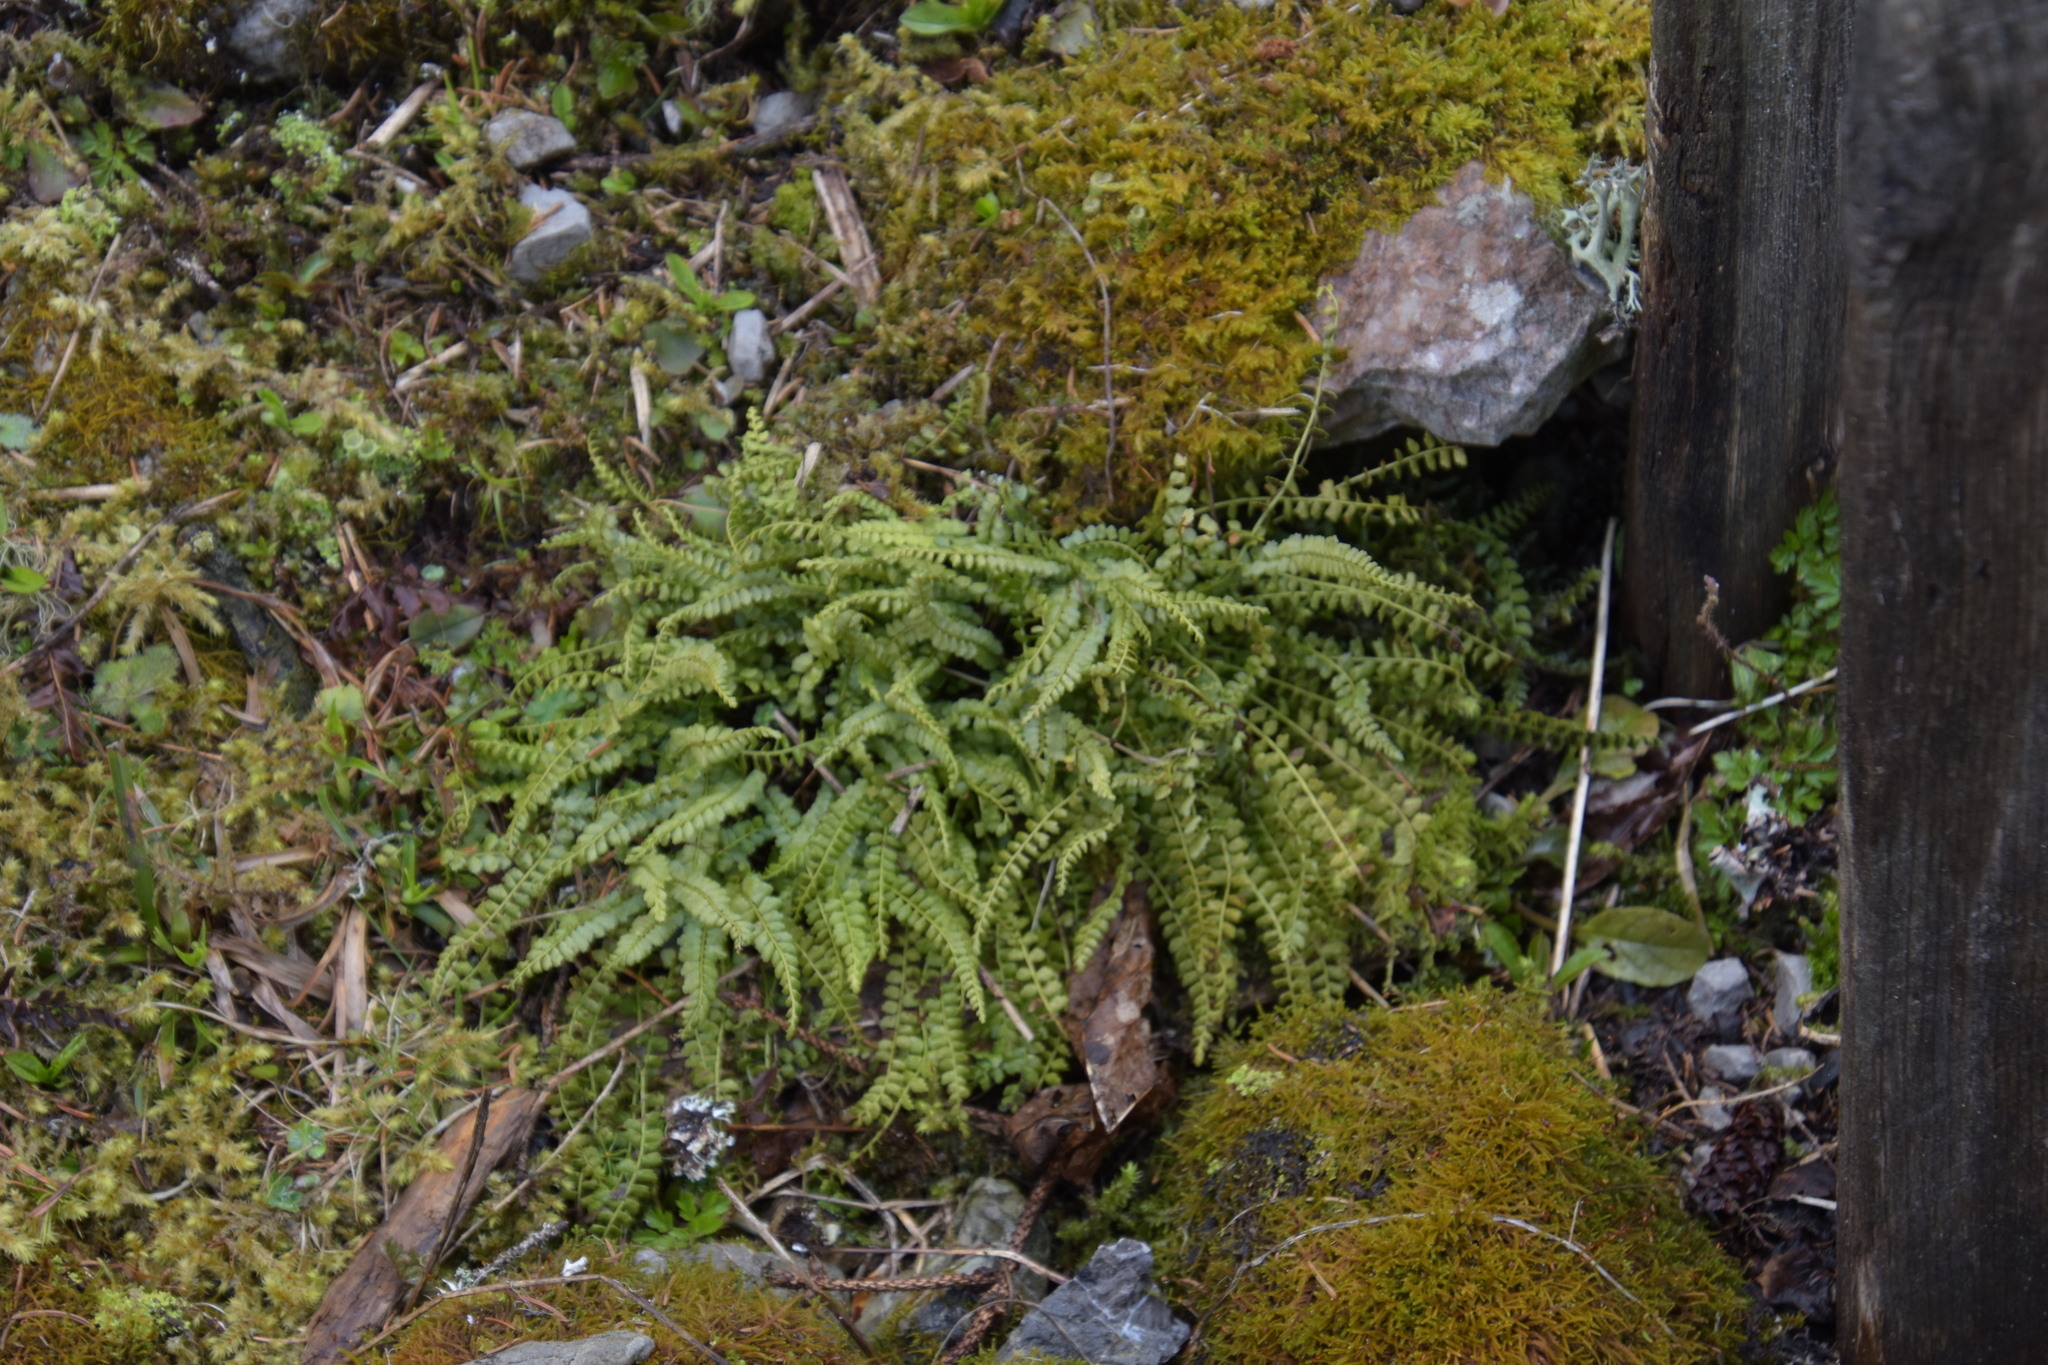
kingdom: Plantae
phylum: Tracheophyta
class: Polypodiopsida
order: Polypodiales
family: Aspleniaceae
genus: Asplenium
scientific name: Asplenium viride
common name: Green spleenwort
